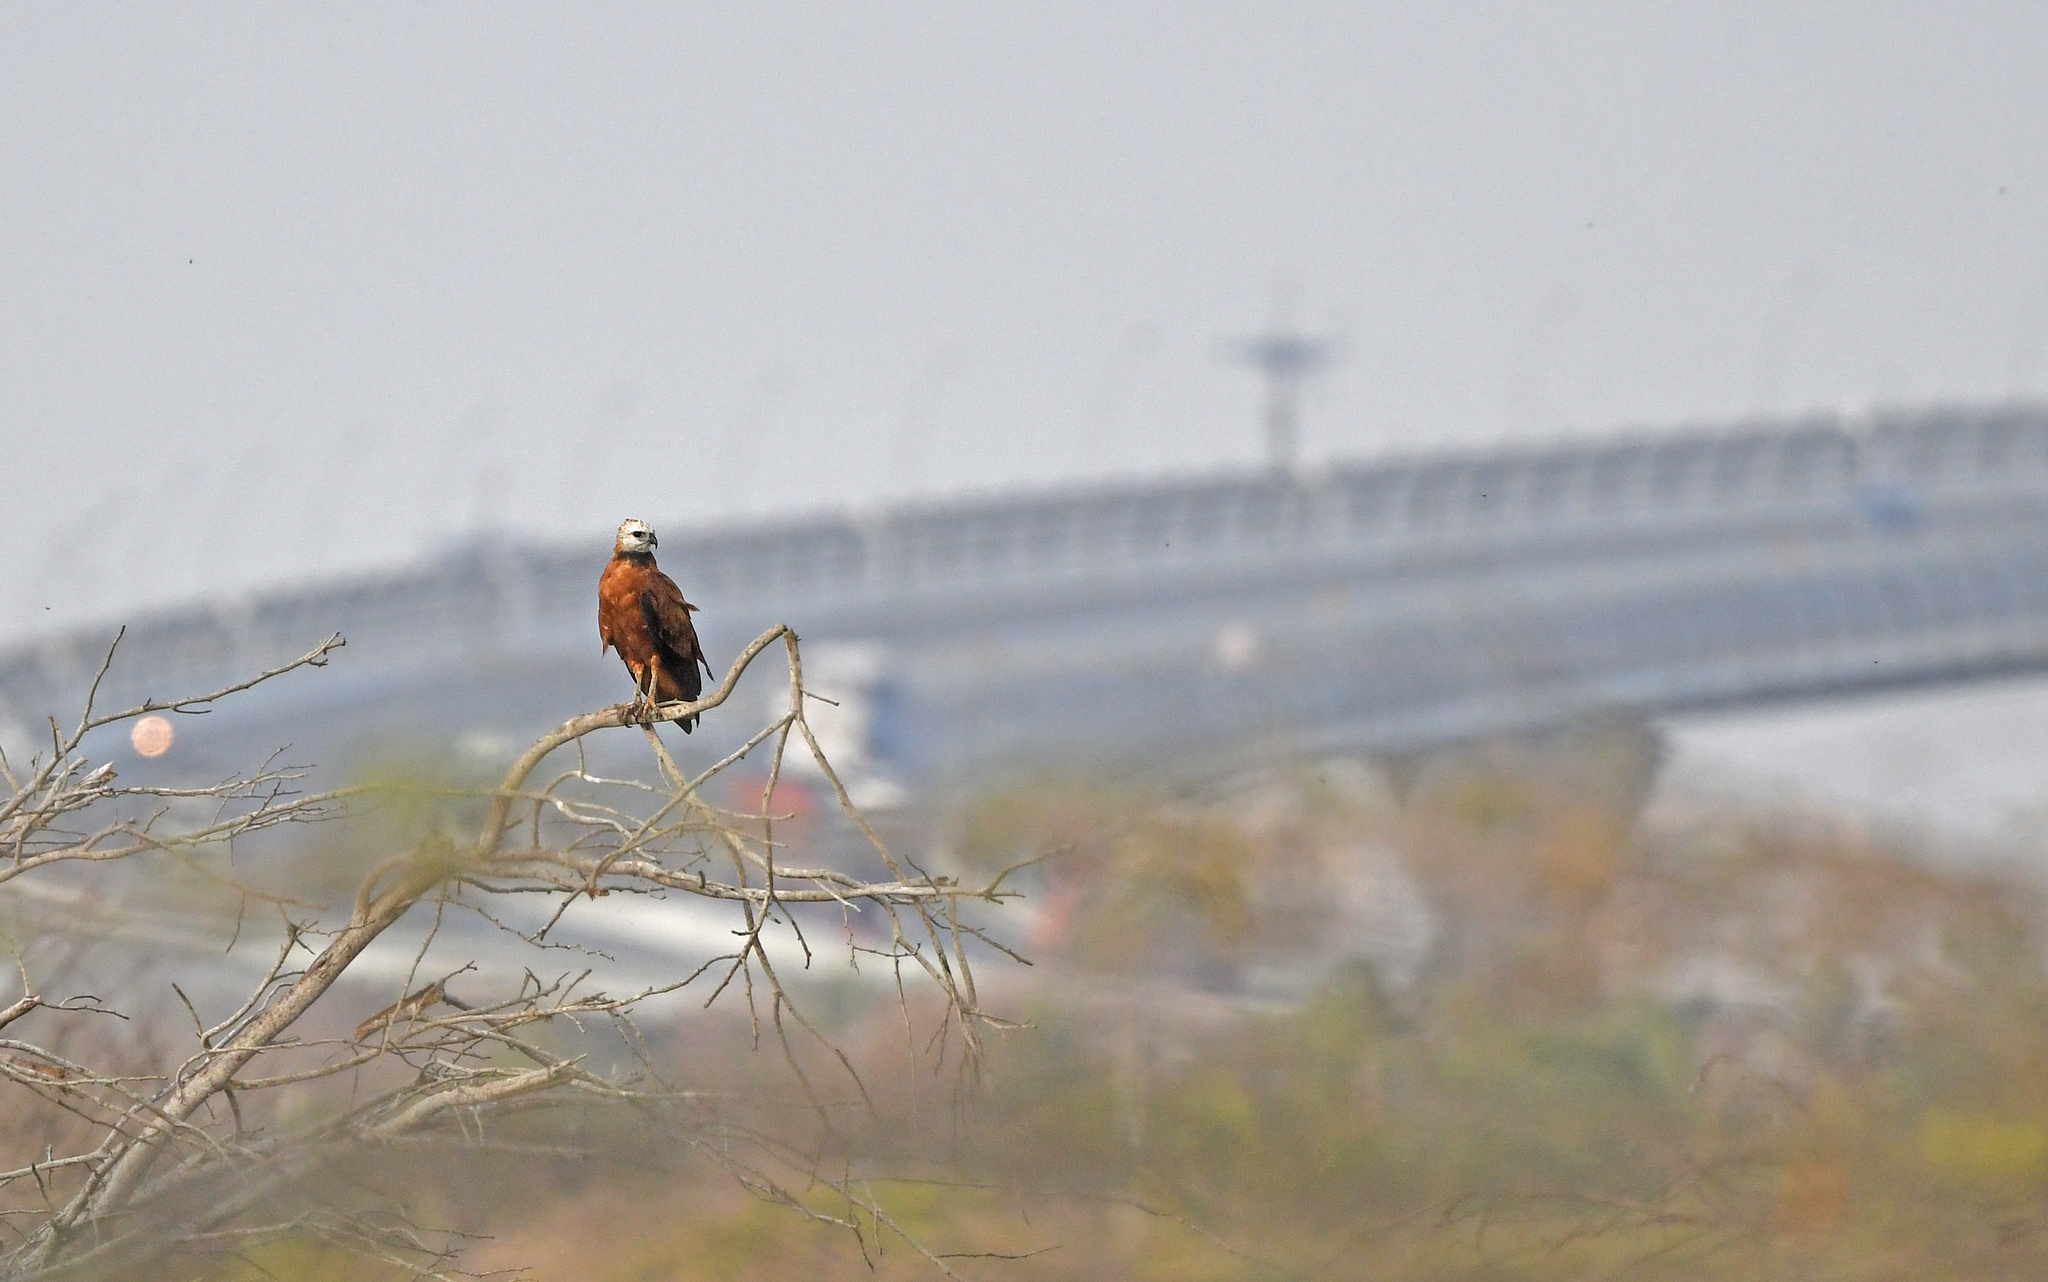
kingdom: Animalia
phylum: Chordata
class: Aves
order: Accipitriformes
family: Accipitridae
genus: Busarellus
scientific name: Busarellus nigricollis
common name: Black-collared hawk
